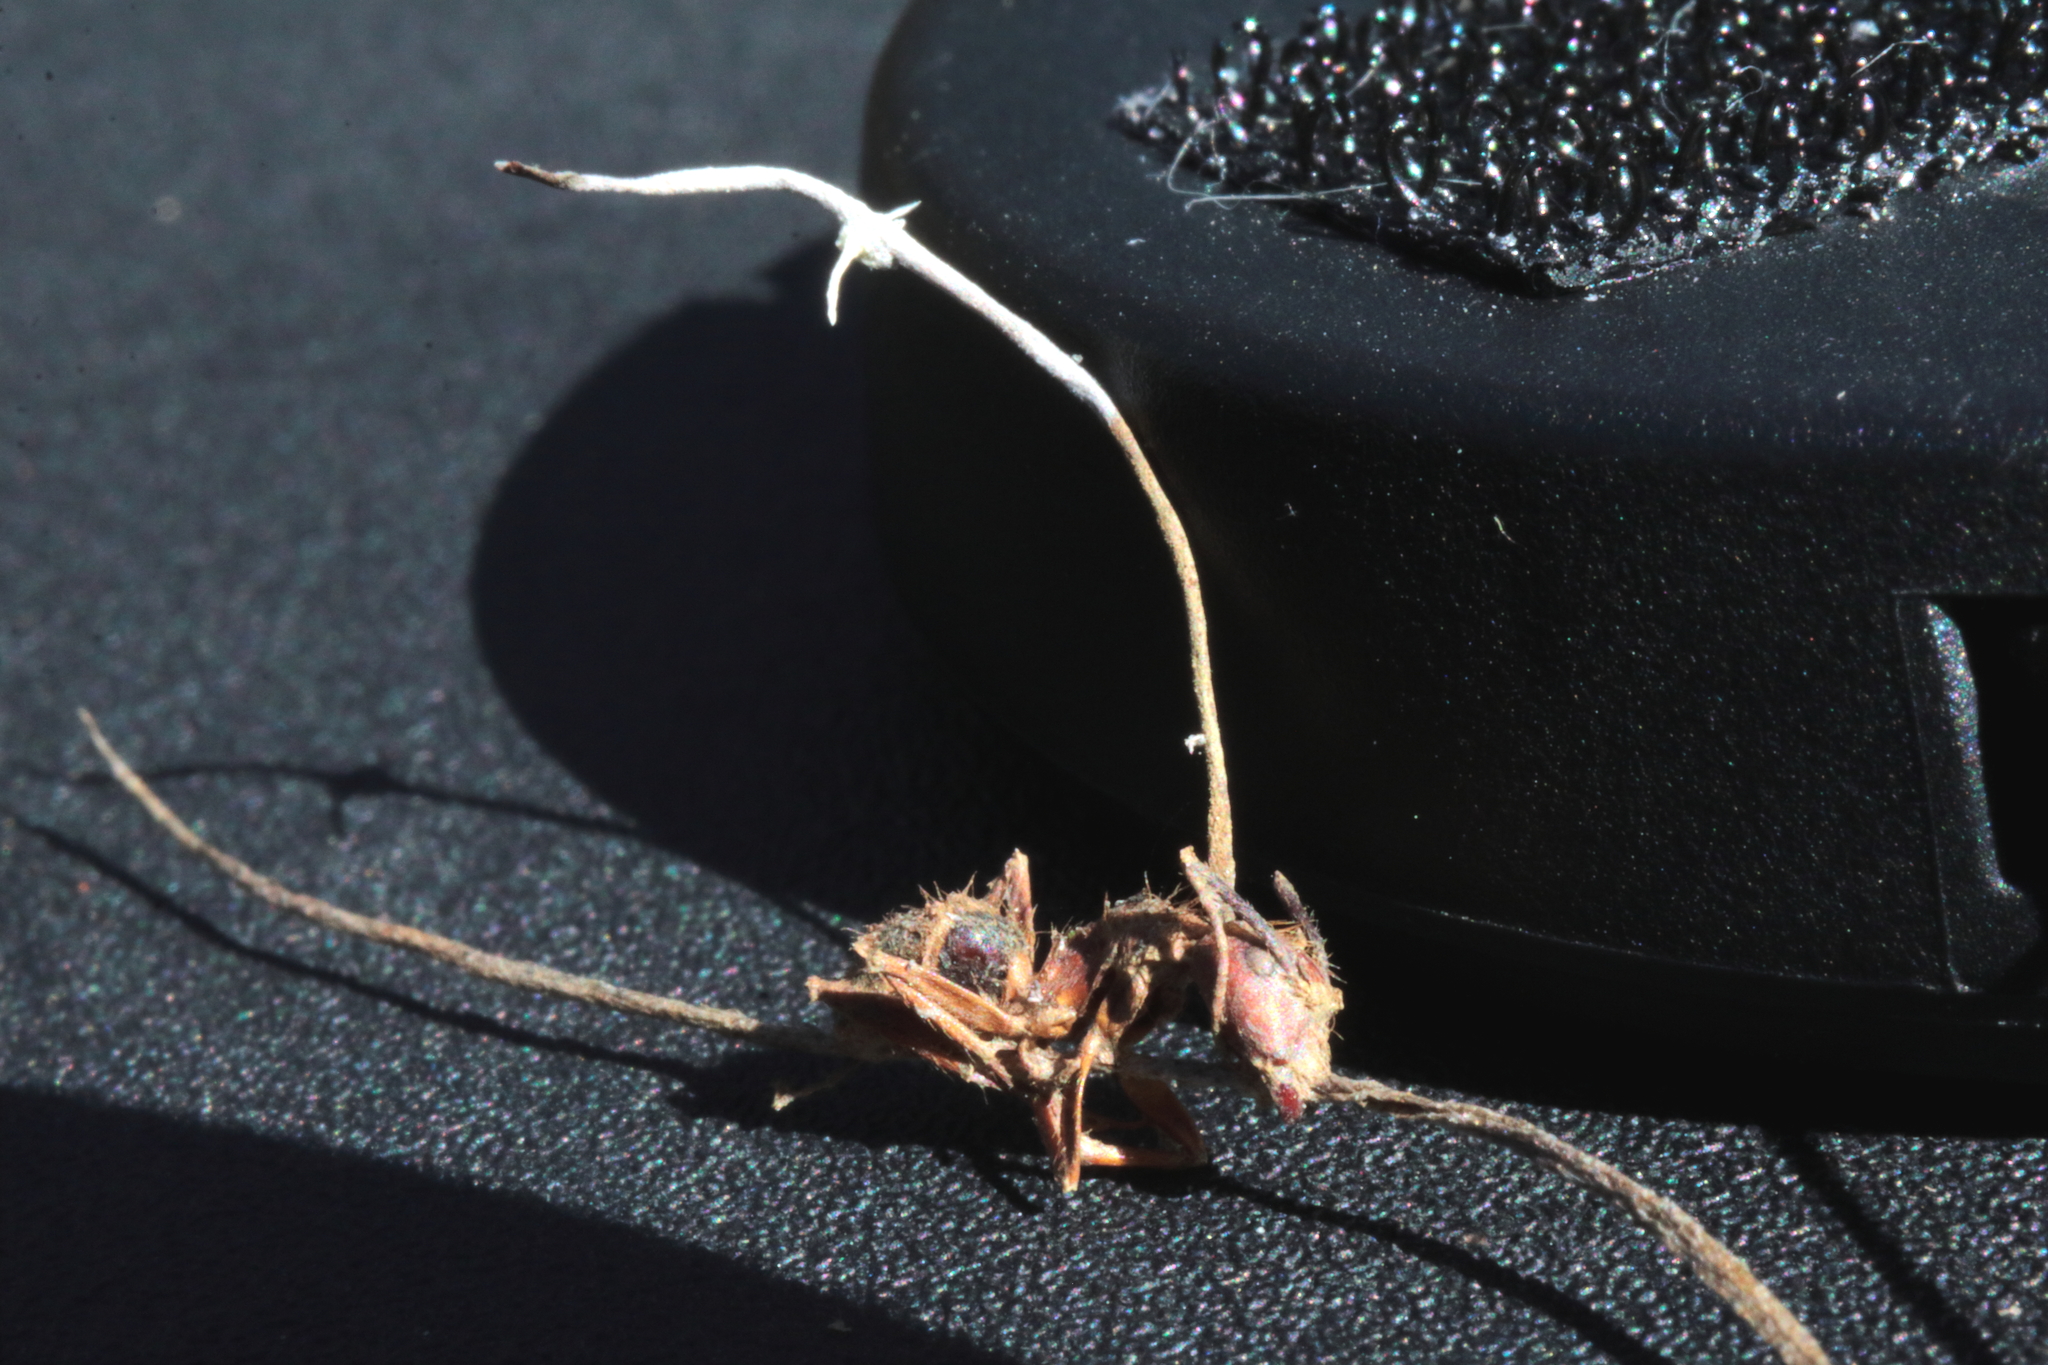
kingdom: Fungi
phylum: Ascomycota
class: Sordariomycetes
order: Hypocreales
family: Ophiocordycipitaceae
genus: Ophiocordyceps
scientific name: Ophiocordyceps camponoti-floridani
